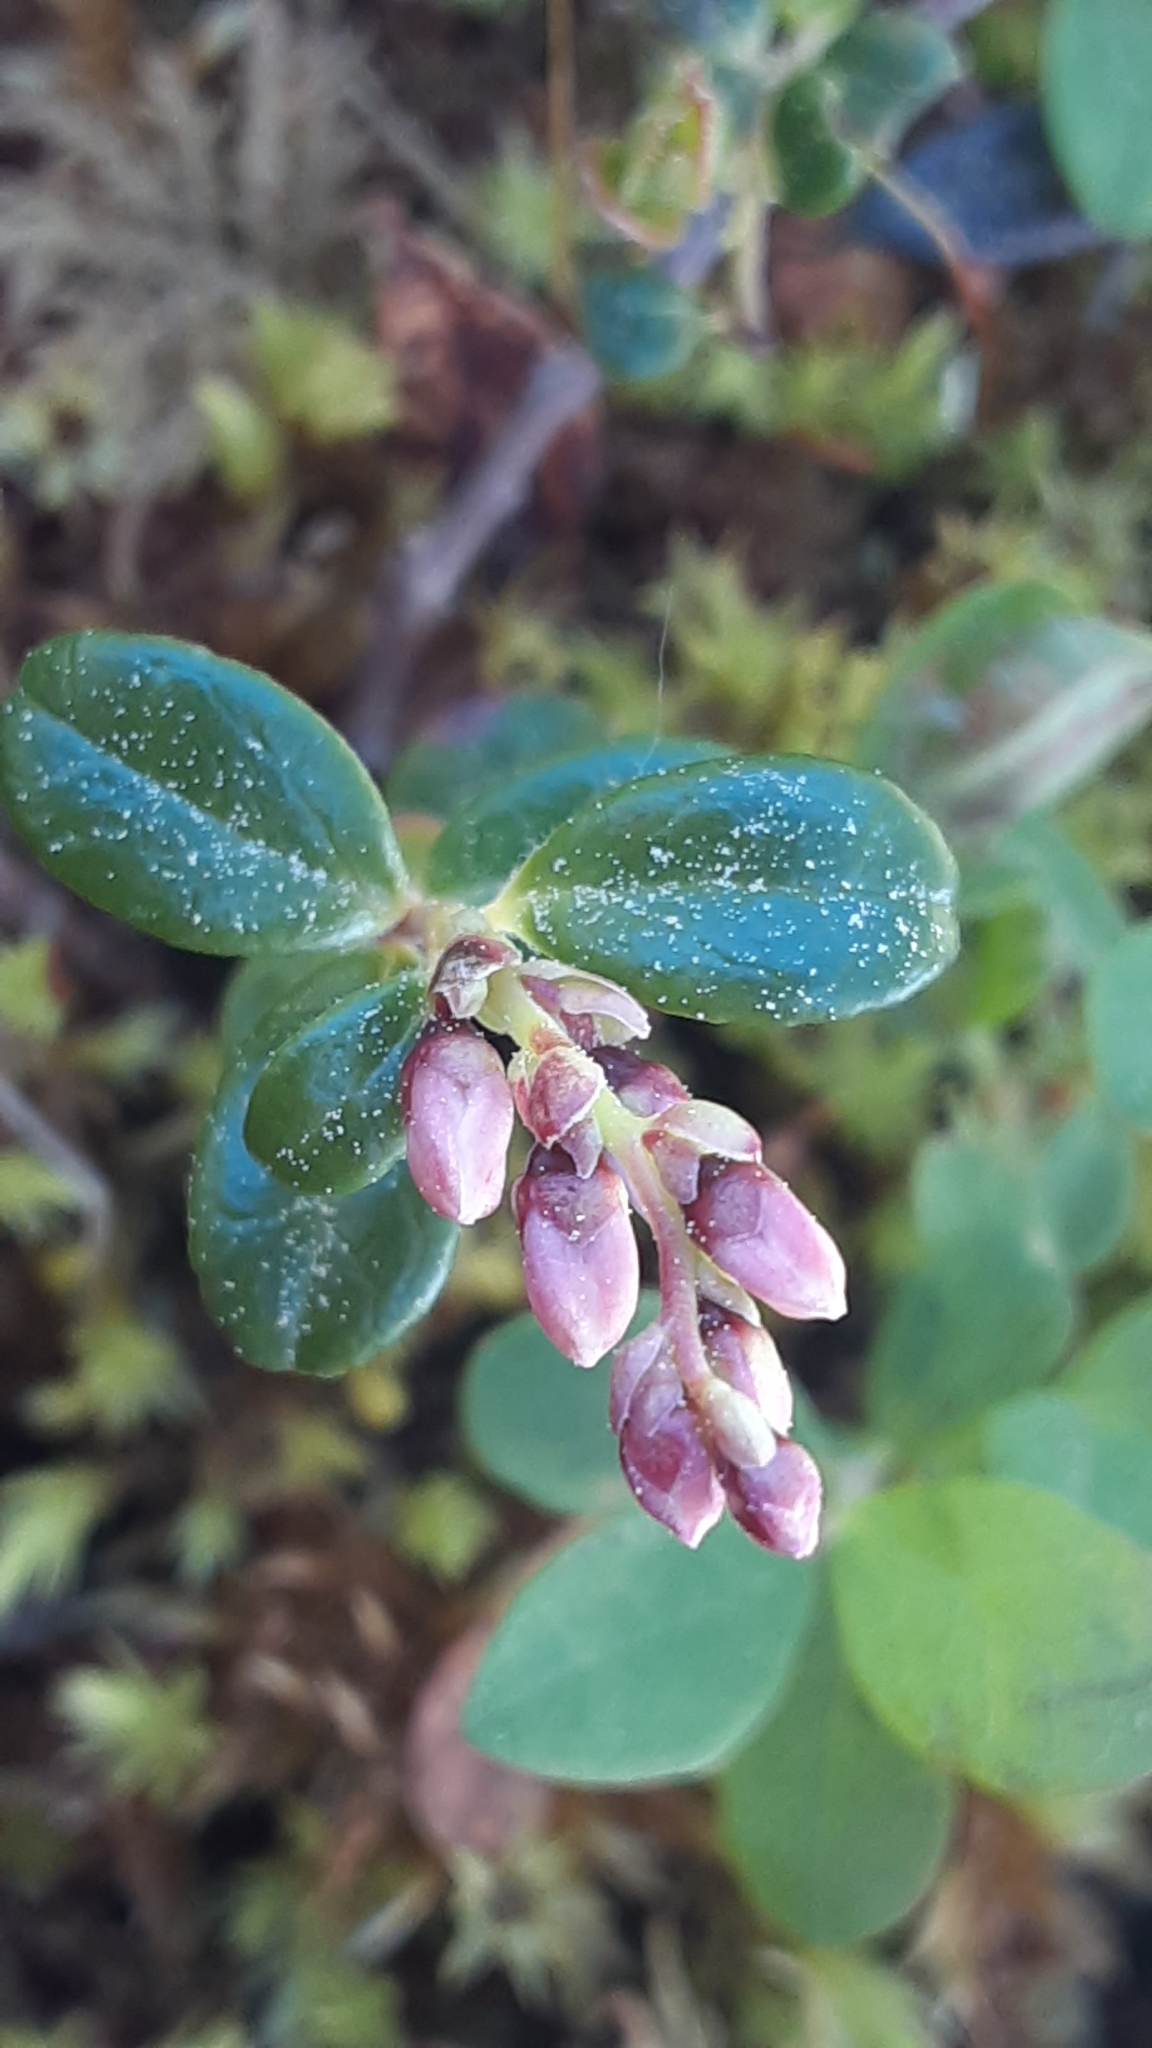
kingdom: Plantae
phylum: Tracheophyta
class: Magnoliopsida
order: Ericales
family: Ericaceae
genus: Vaccinium
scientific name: Vaccinium vitis-idaea
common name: Cowberry
